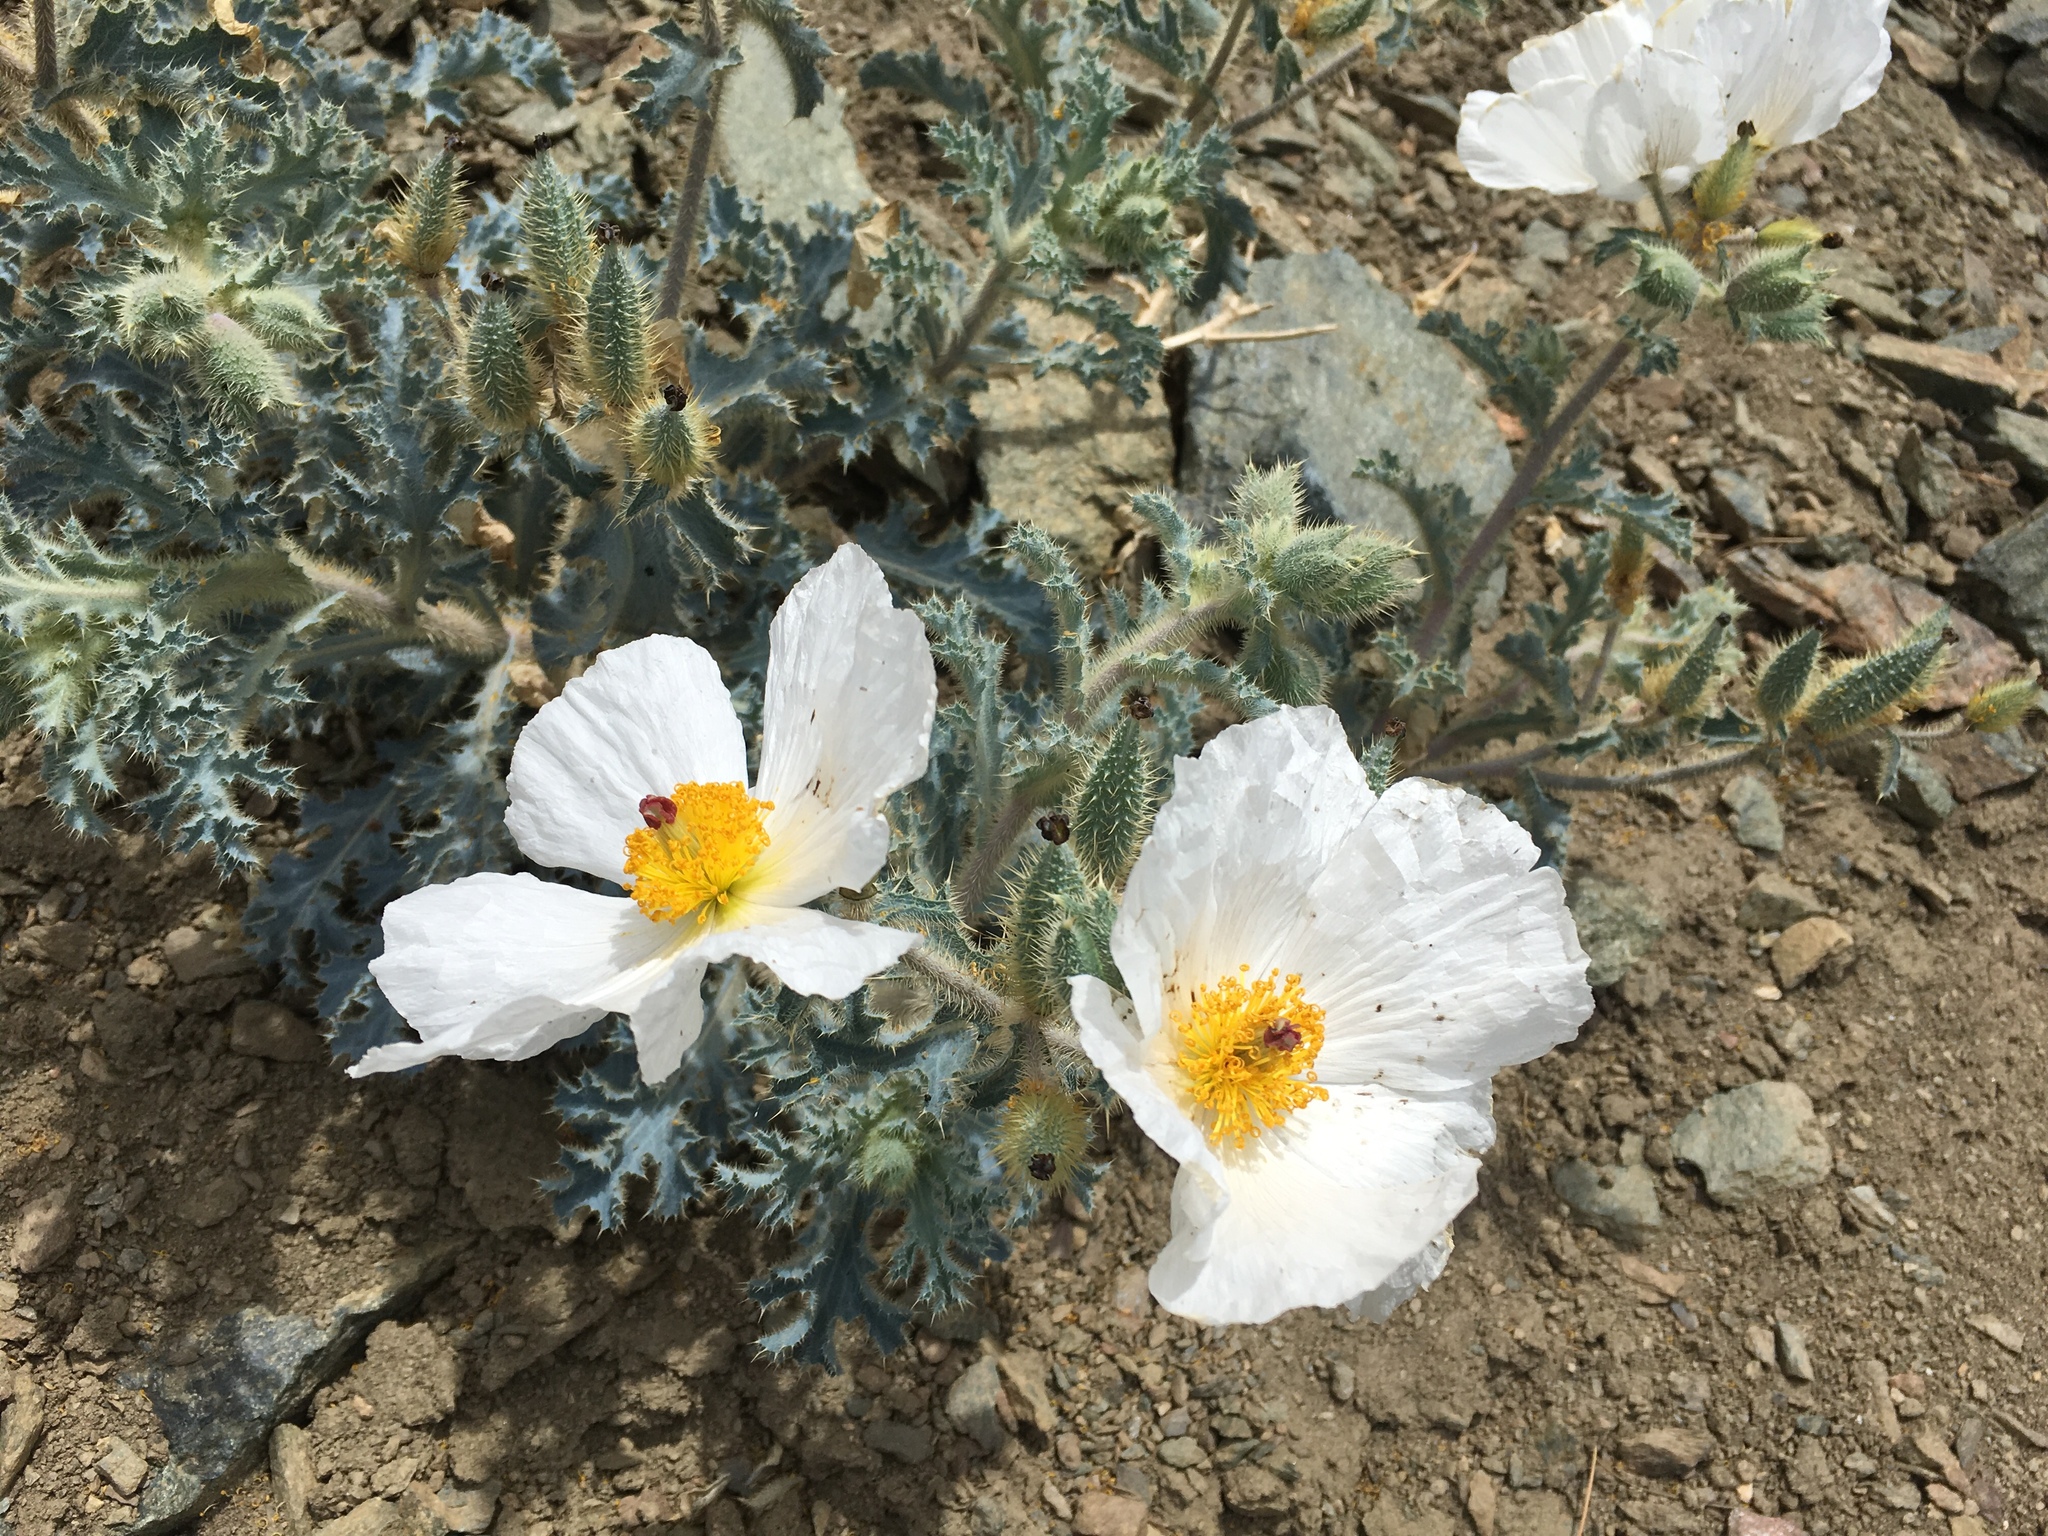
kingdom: Plantae
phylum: Tracheophyta
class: Magnoliopsida
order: Ranunculales
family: Papaveraceae
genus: Argemone
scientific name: Argemone munita
